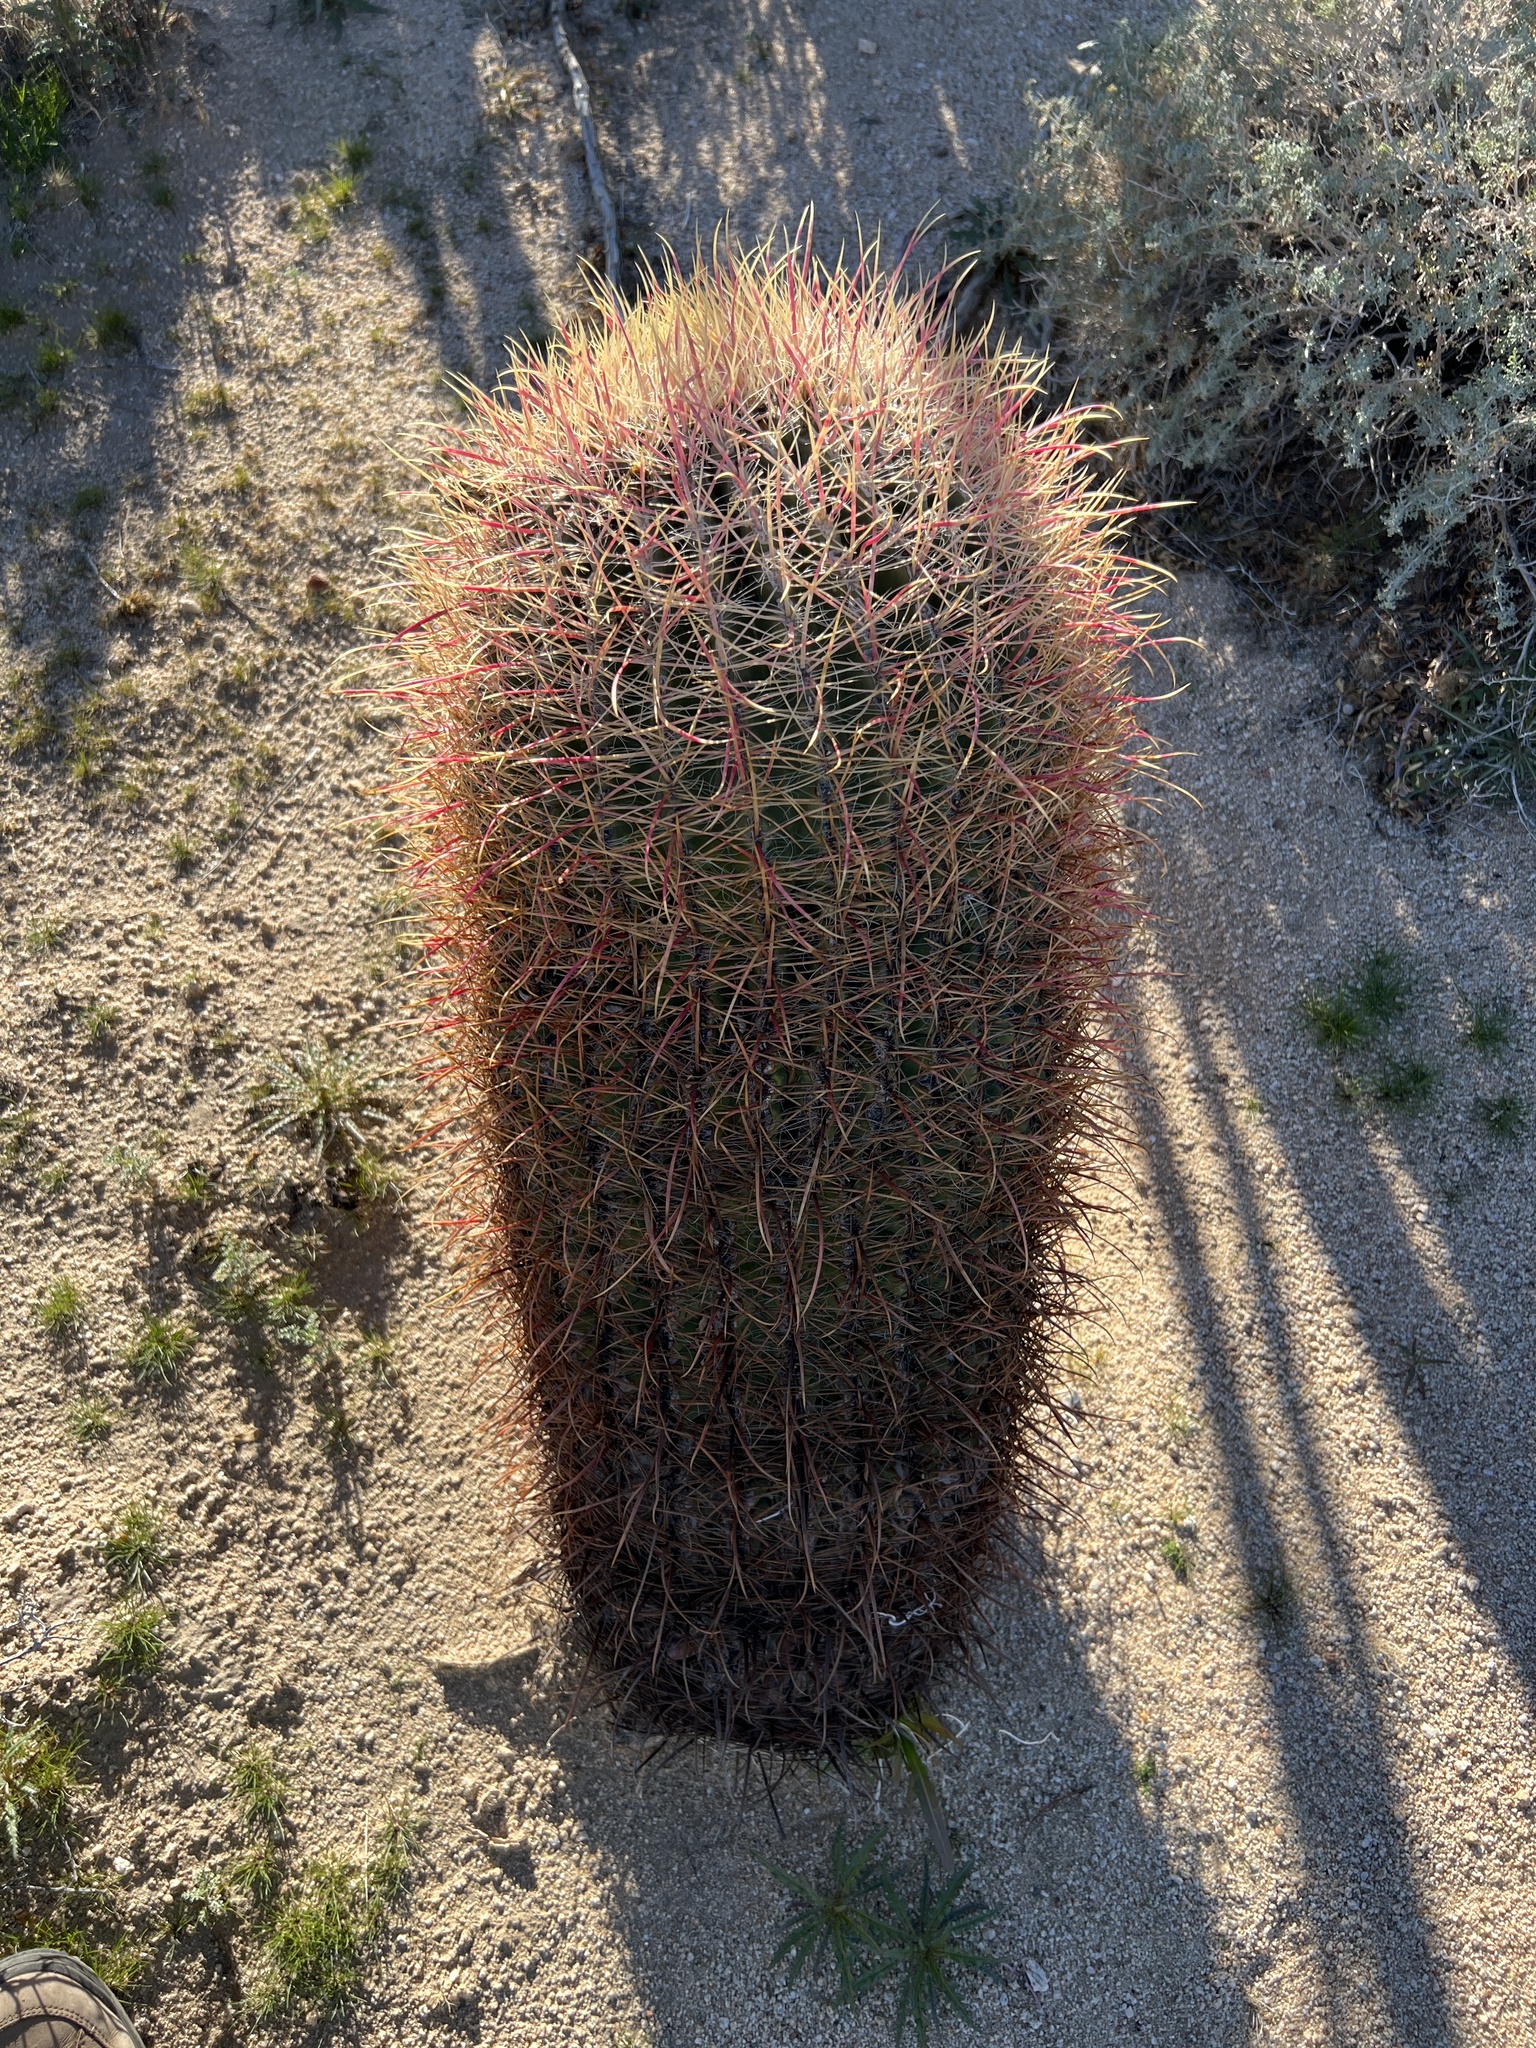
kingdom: Plantae
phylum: Tracheophyta
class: Magnoliopsida
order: Caryophyllales
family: Cactaceae
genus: Ferocactus
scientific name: Ferocactus cylindraceus
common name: California barrel cactus
